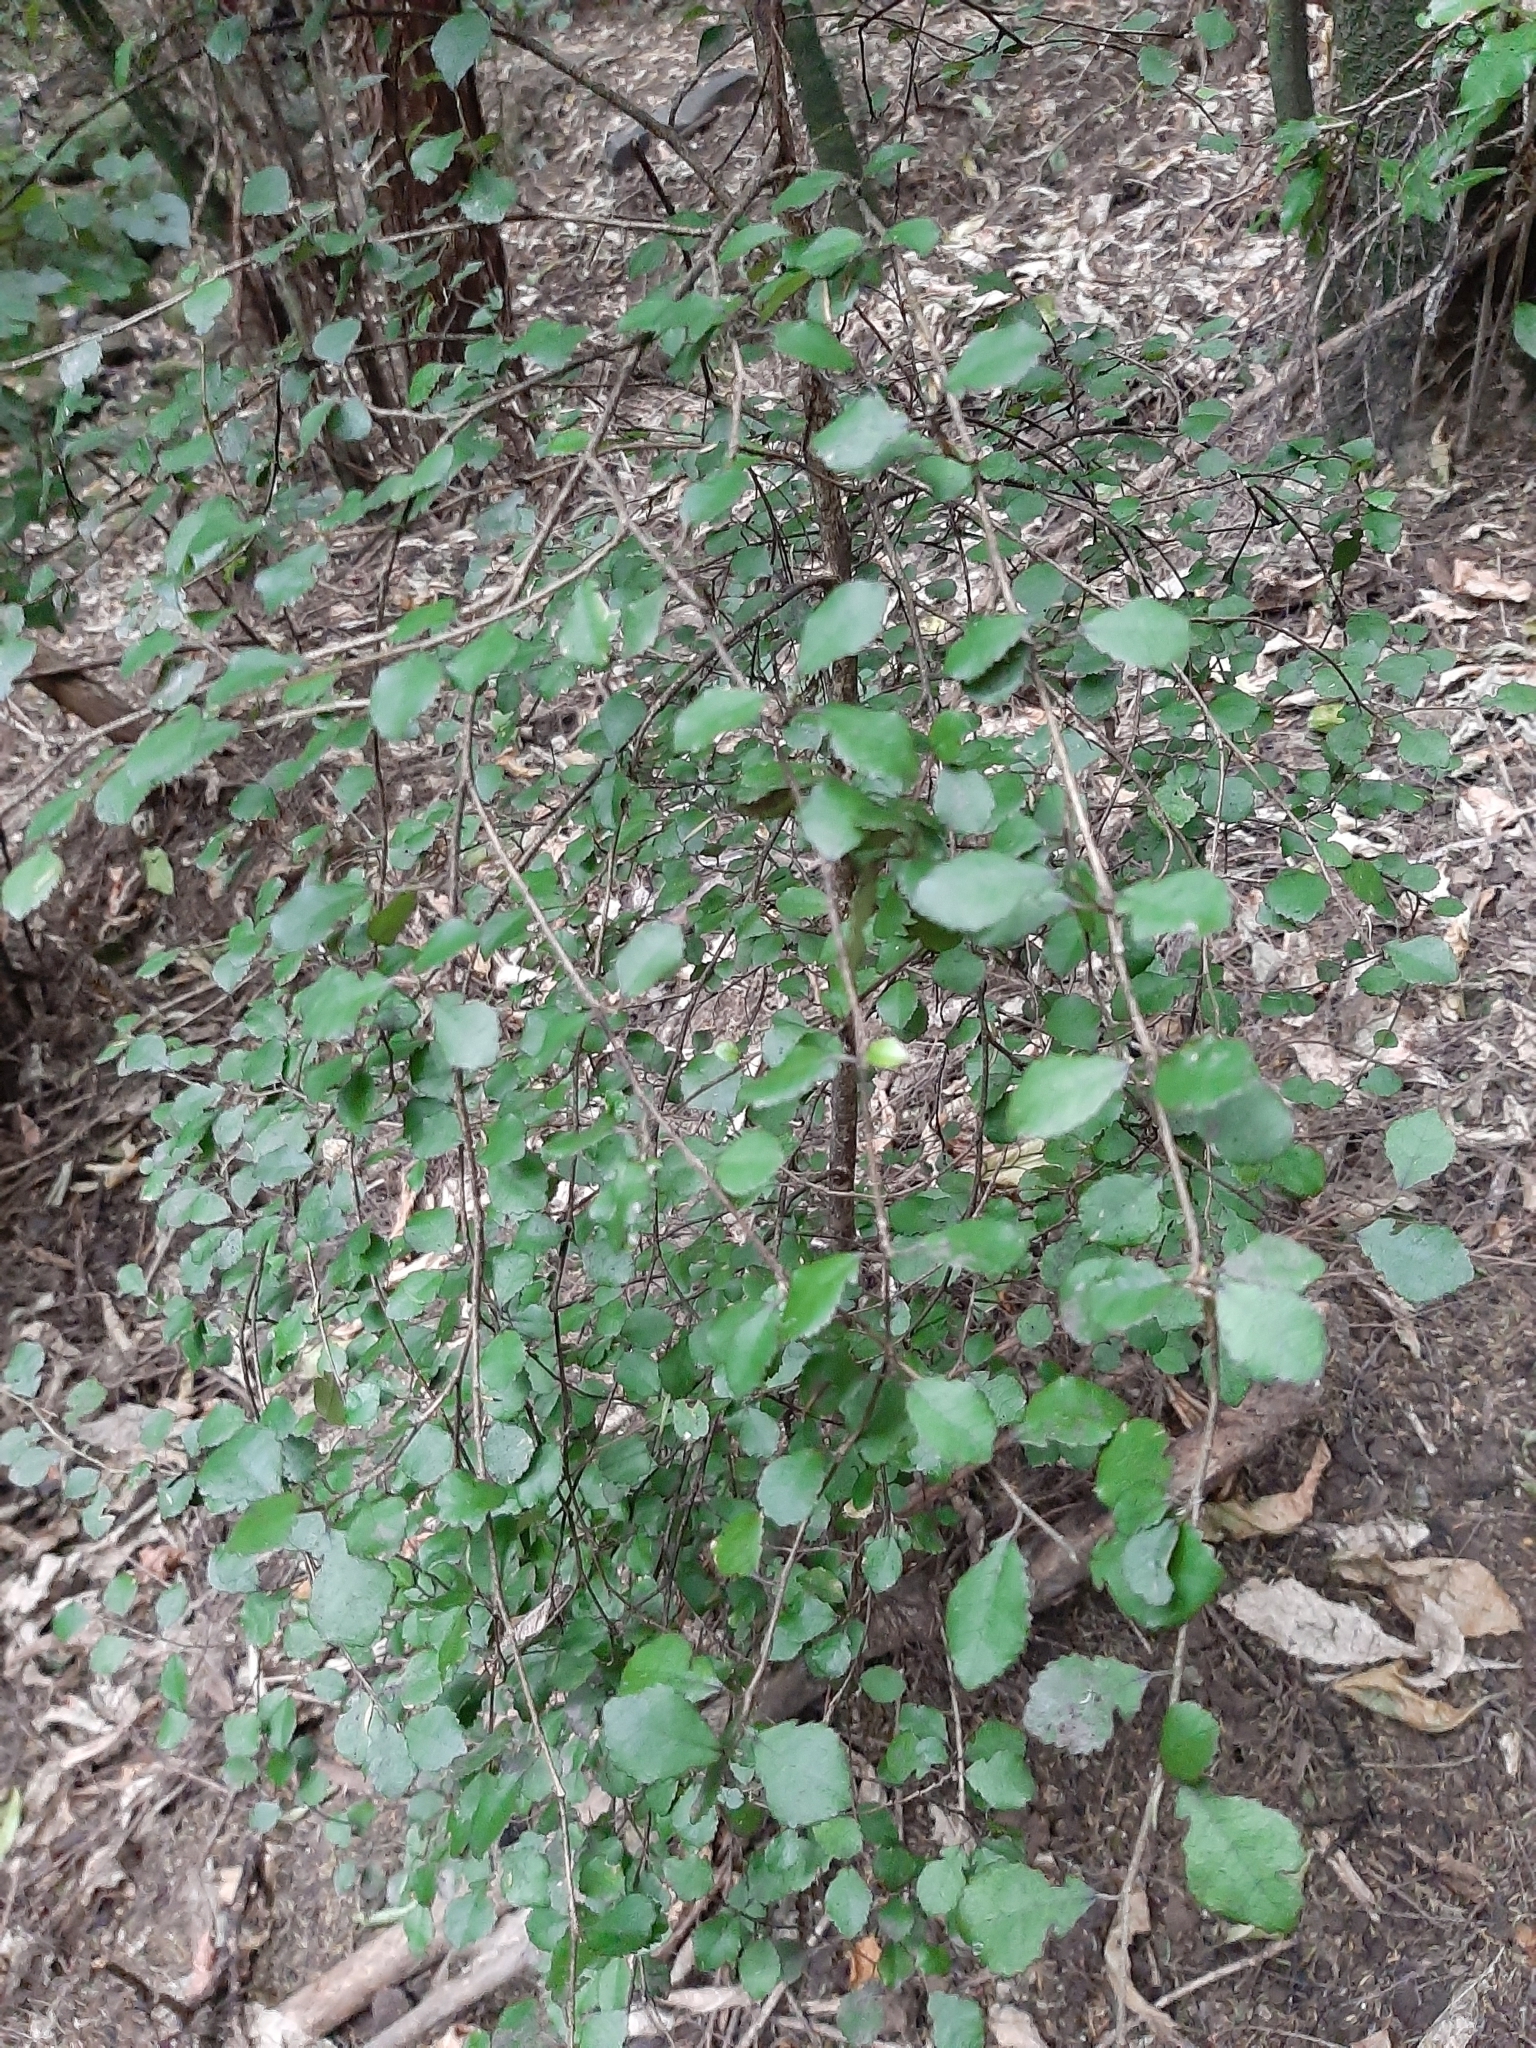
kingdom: Plantae
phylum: Tracheophyta
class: Magnoliopsida
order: Rosales
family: Moraceae
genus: Paratrophis
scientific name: Paratrophis microphylla
